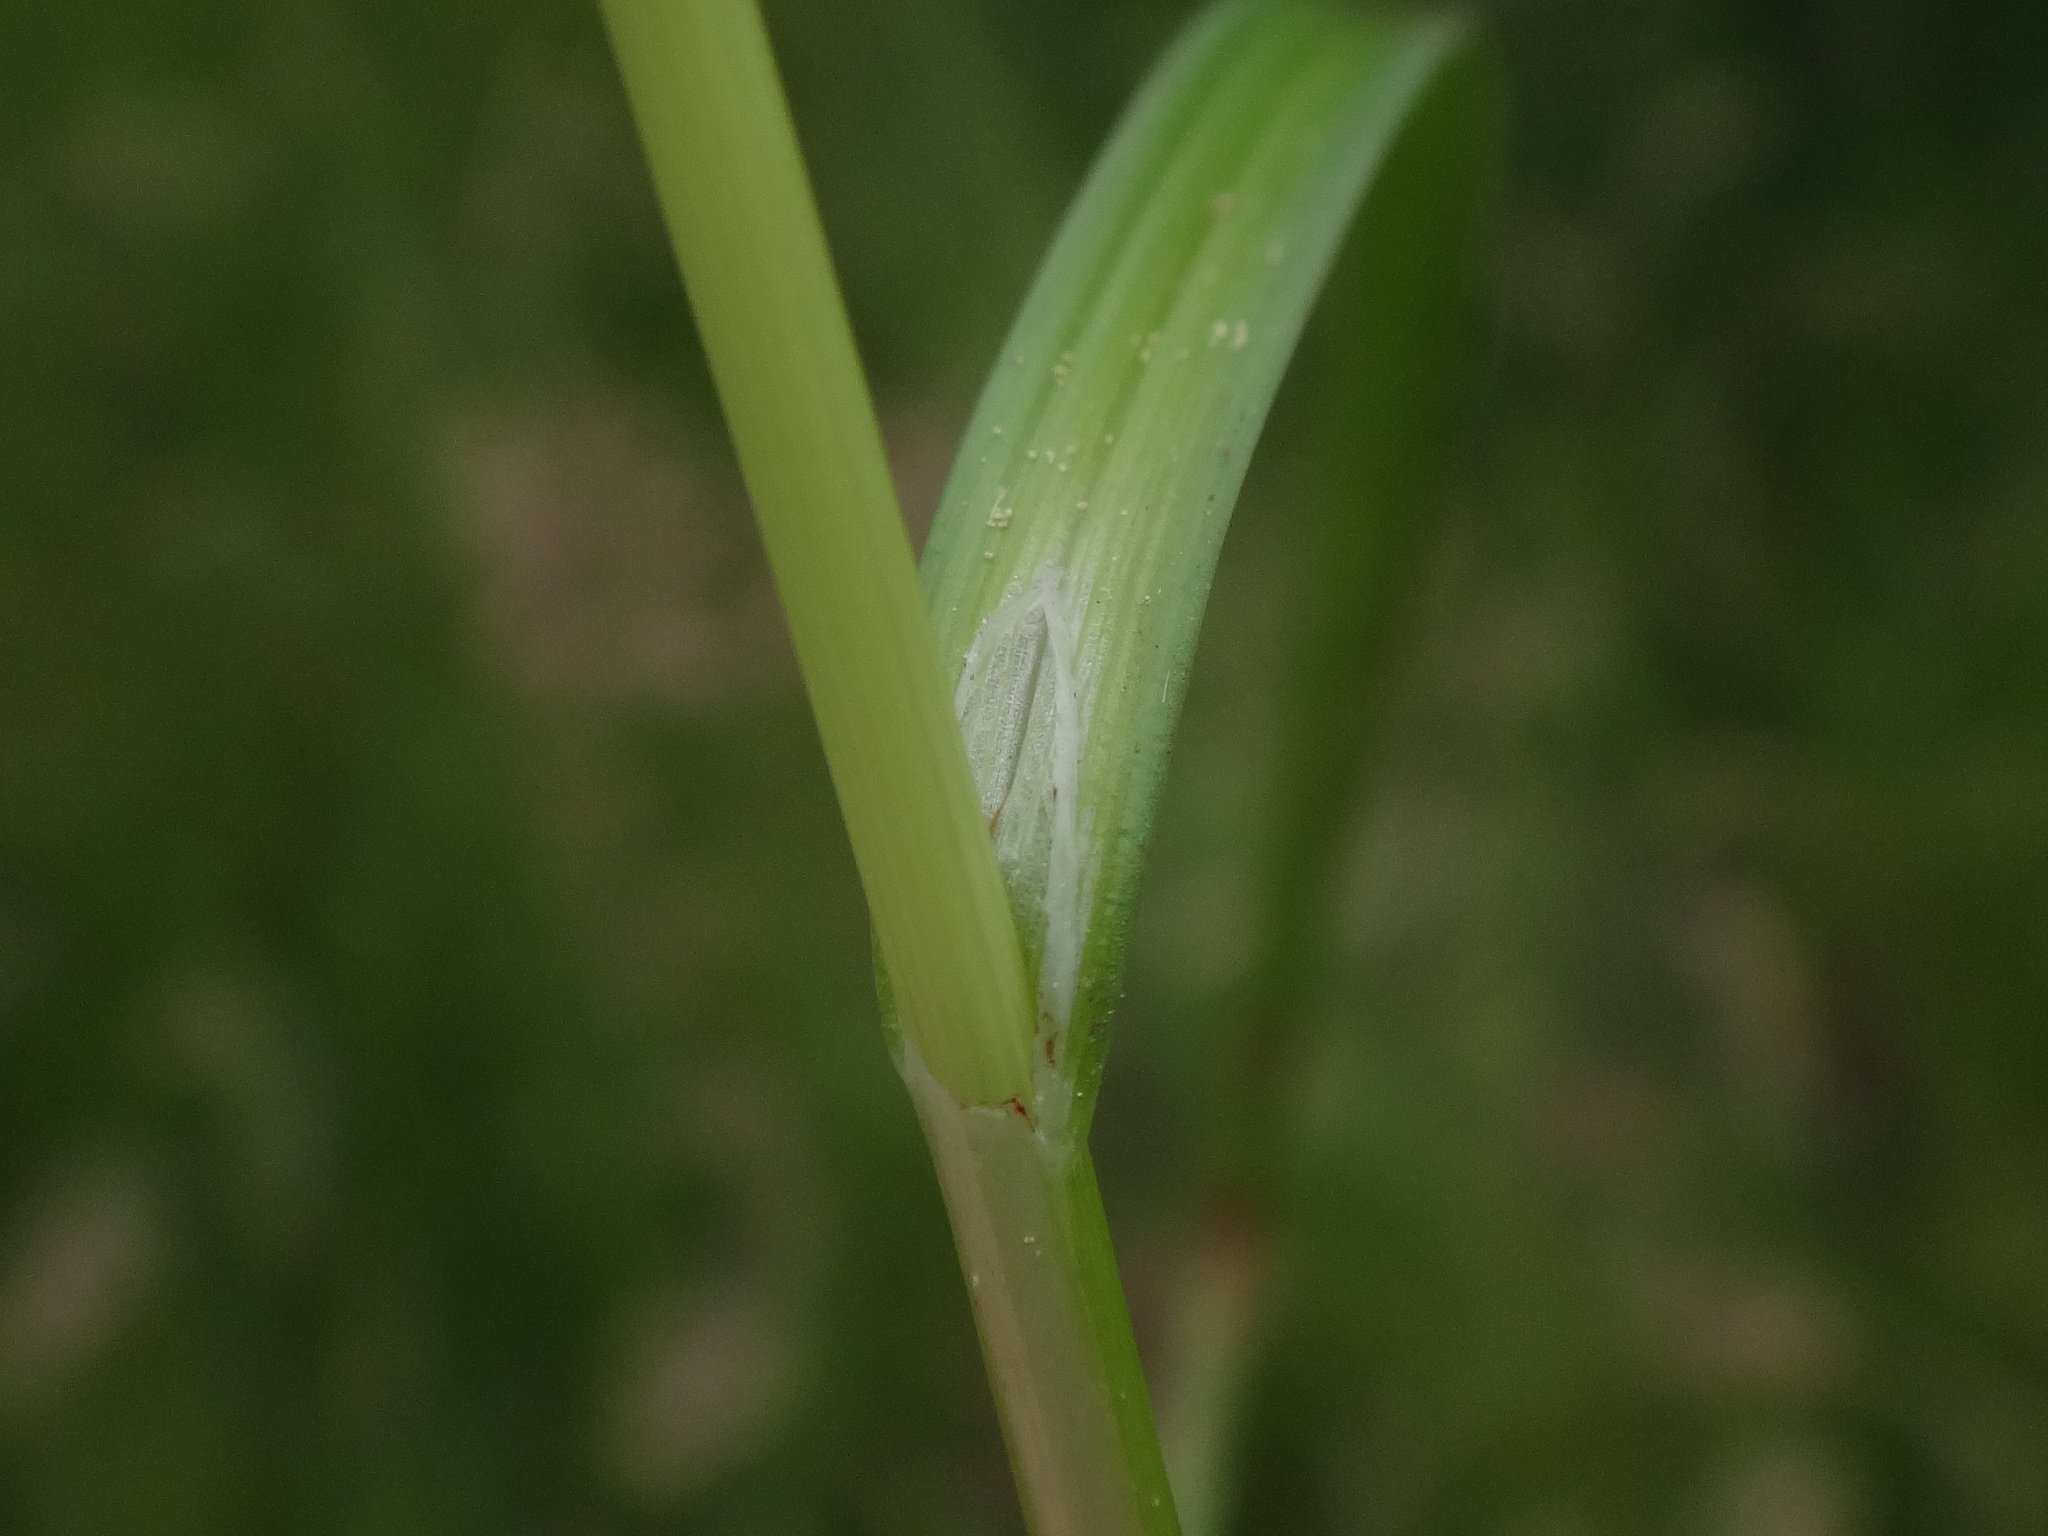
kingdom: Plantae
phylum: Tracheophyta
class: Liliopsida
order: Poales
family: Cyperaceae
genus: Carex
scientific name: Carex spicata
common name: Spiked sedge
